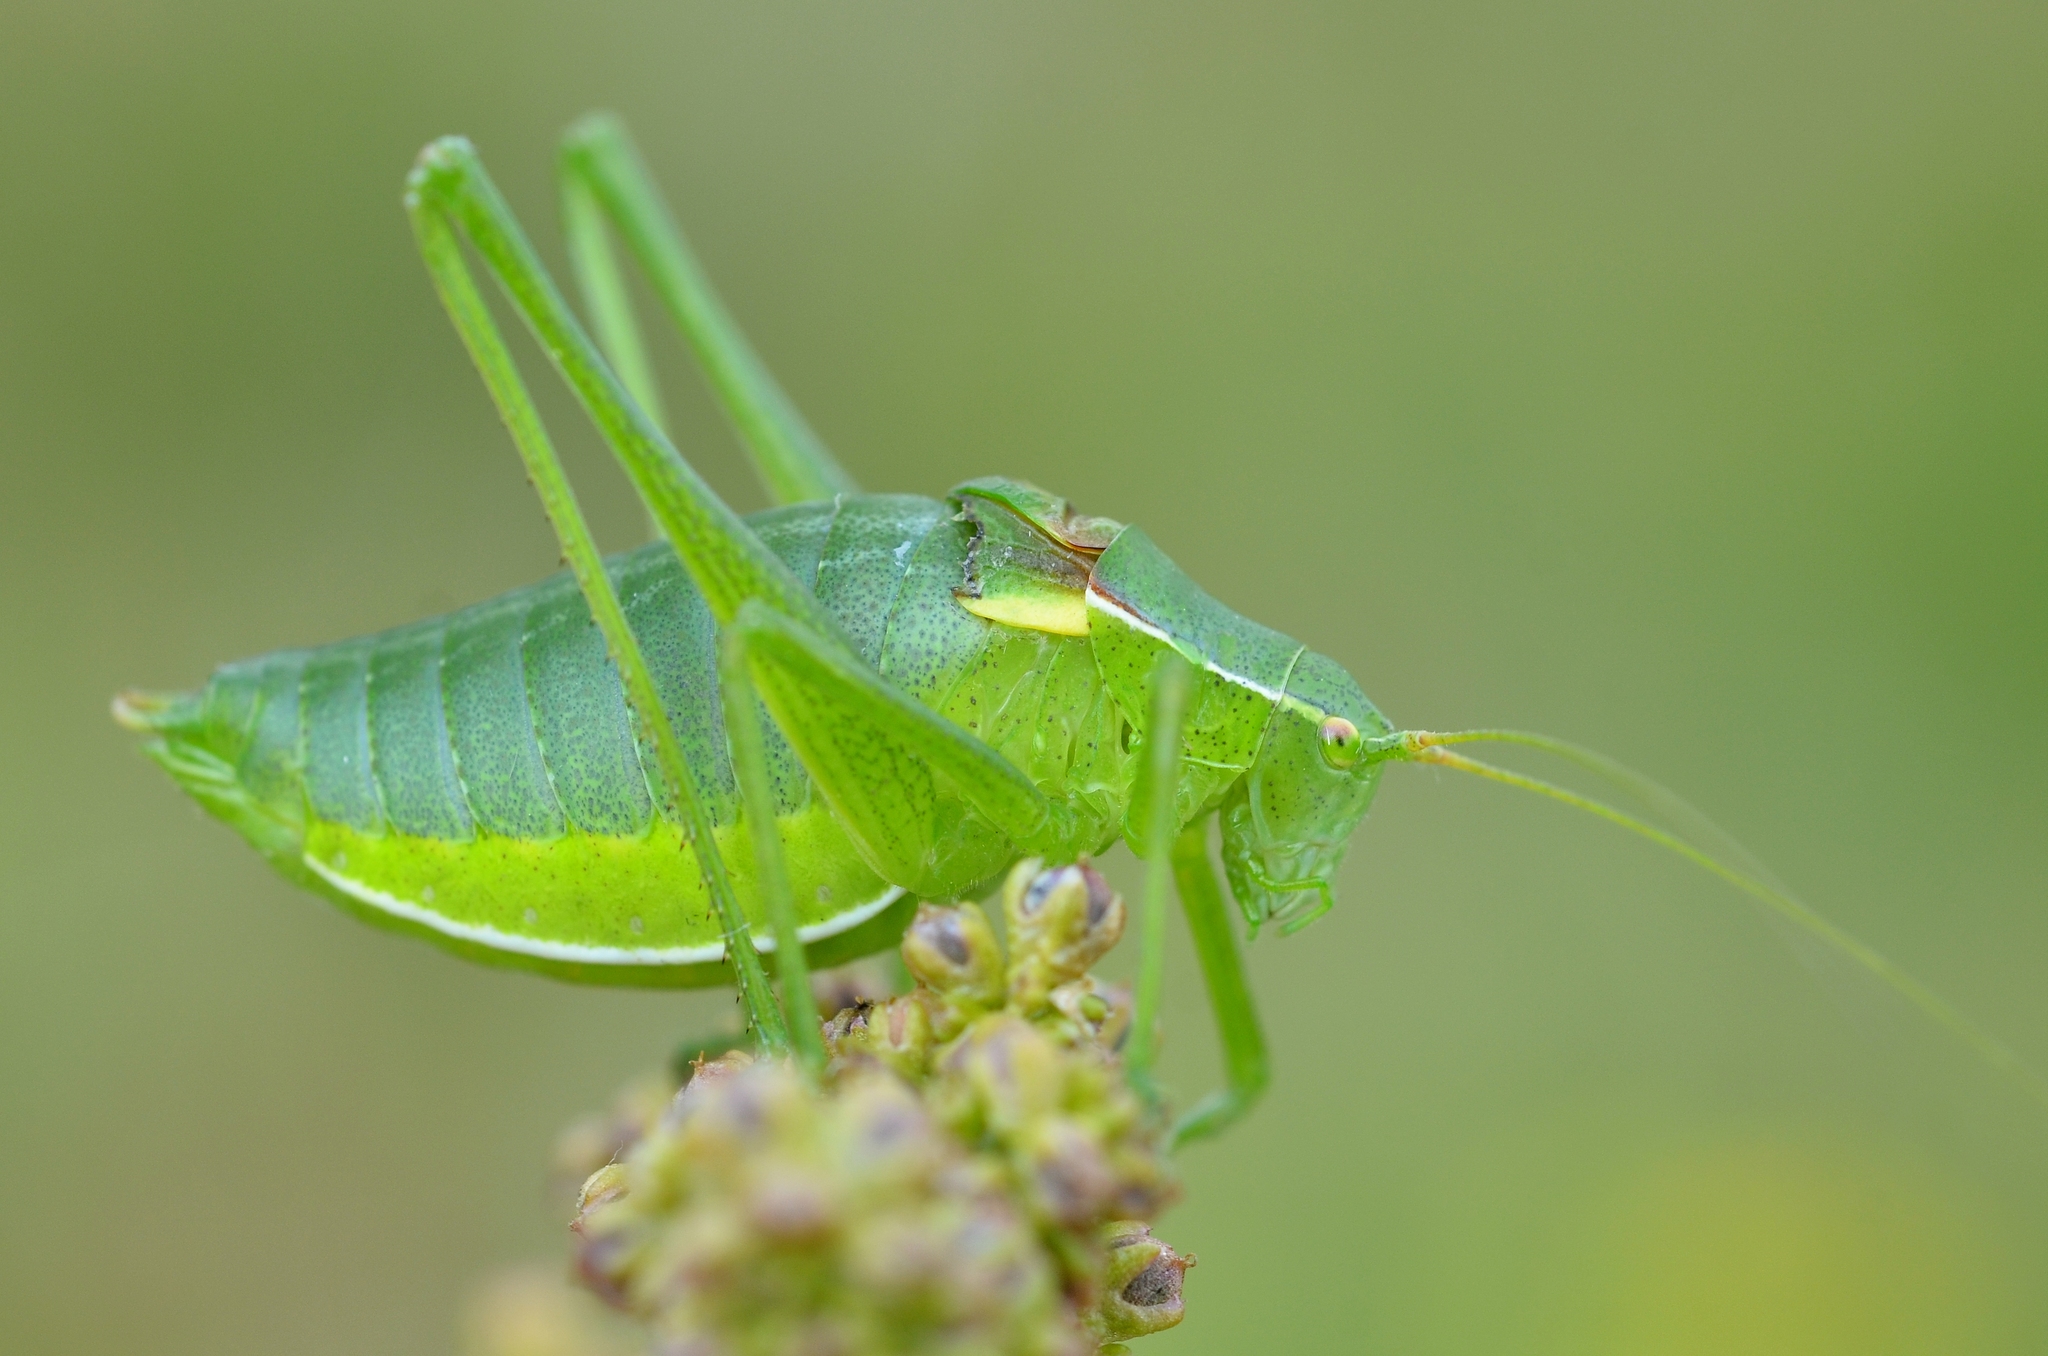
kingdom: Animalia
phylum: Arthropoda
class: Insecta
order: Orthoptera
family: Tettigoniidae
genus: Isophya
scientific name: Isophya pyrenaea
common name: Pyrenean plump bush-cricket
